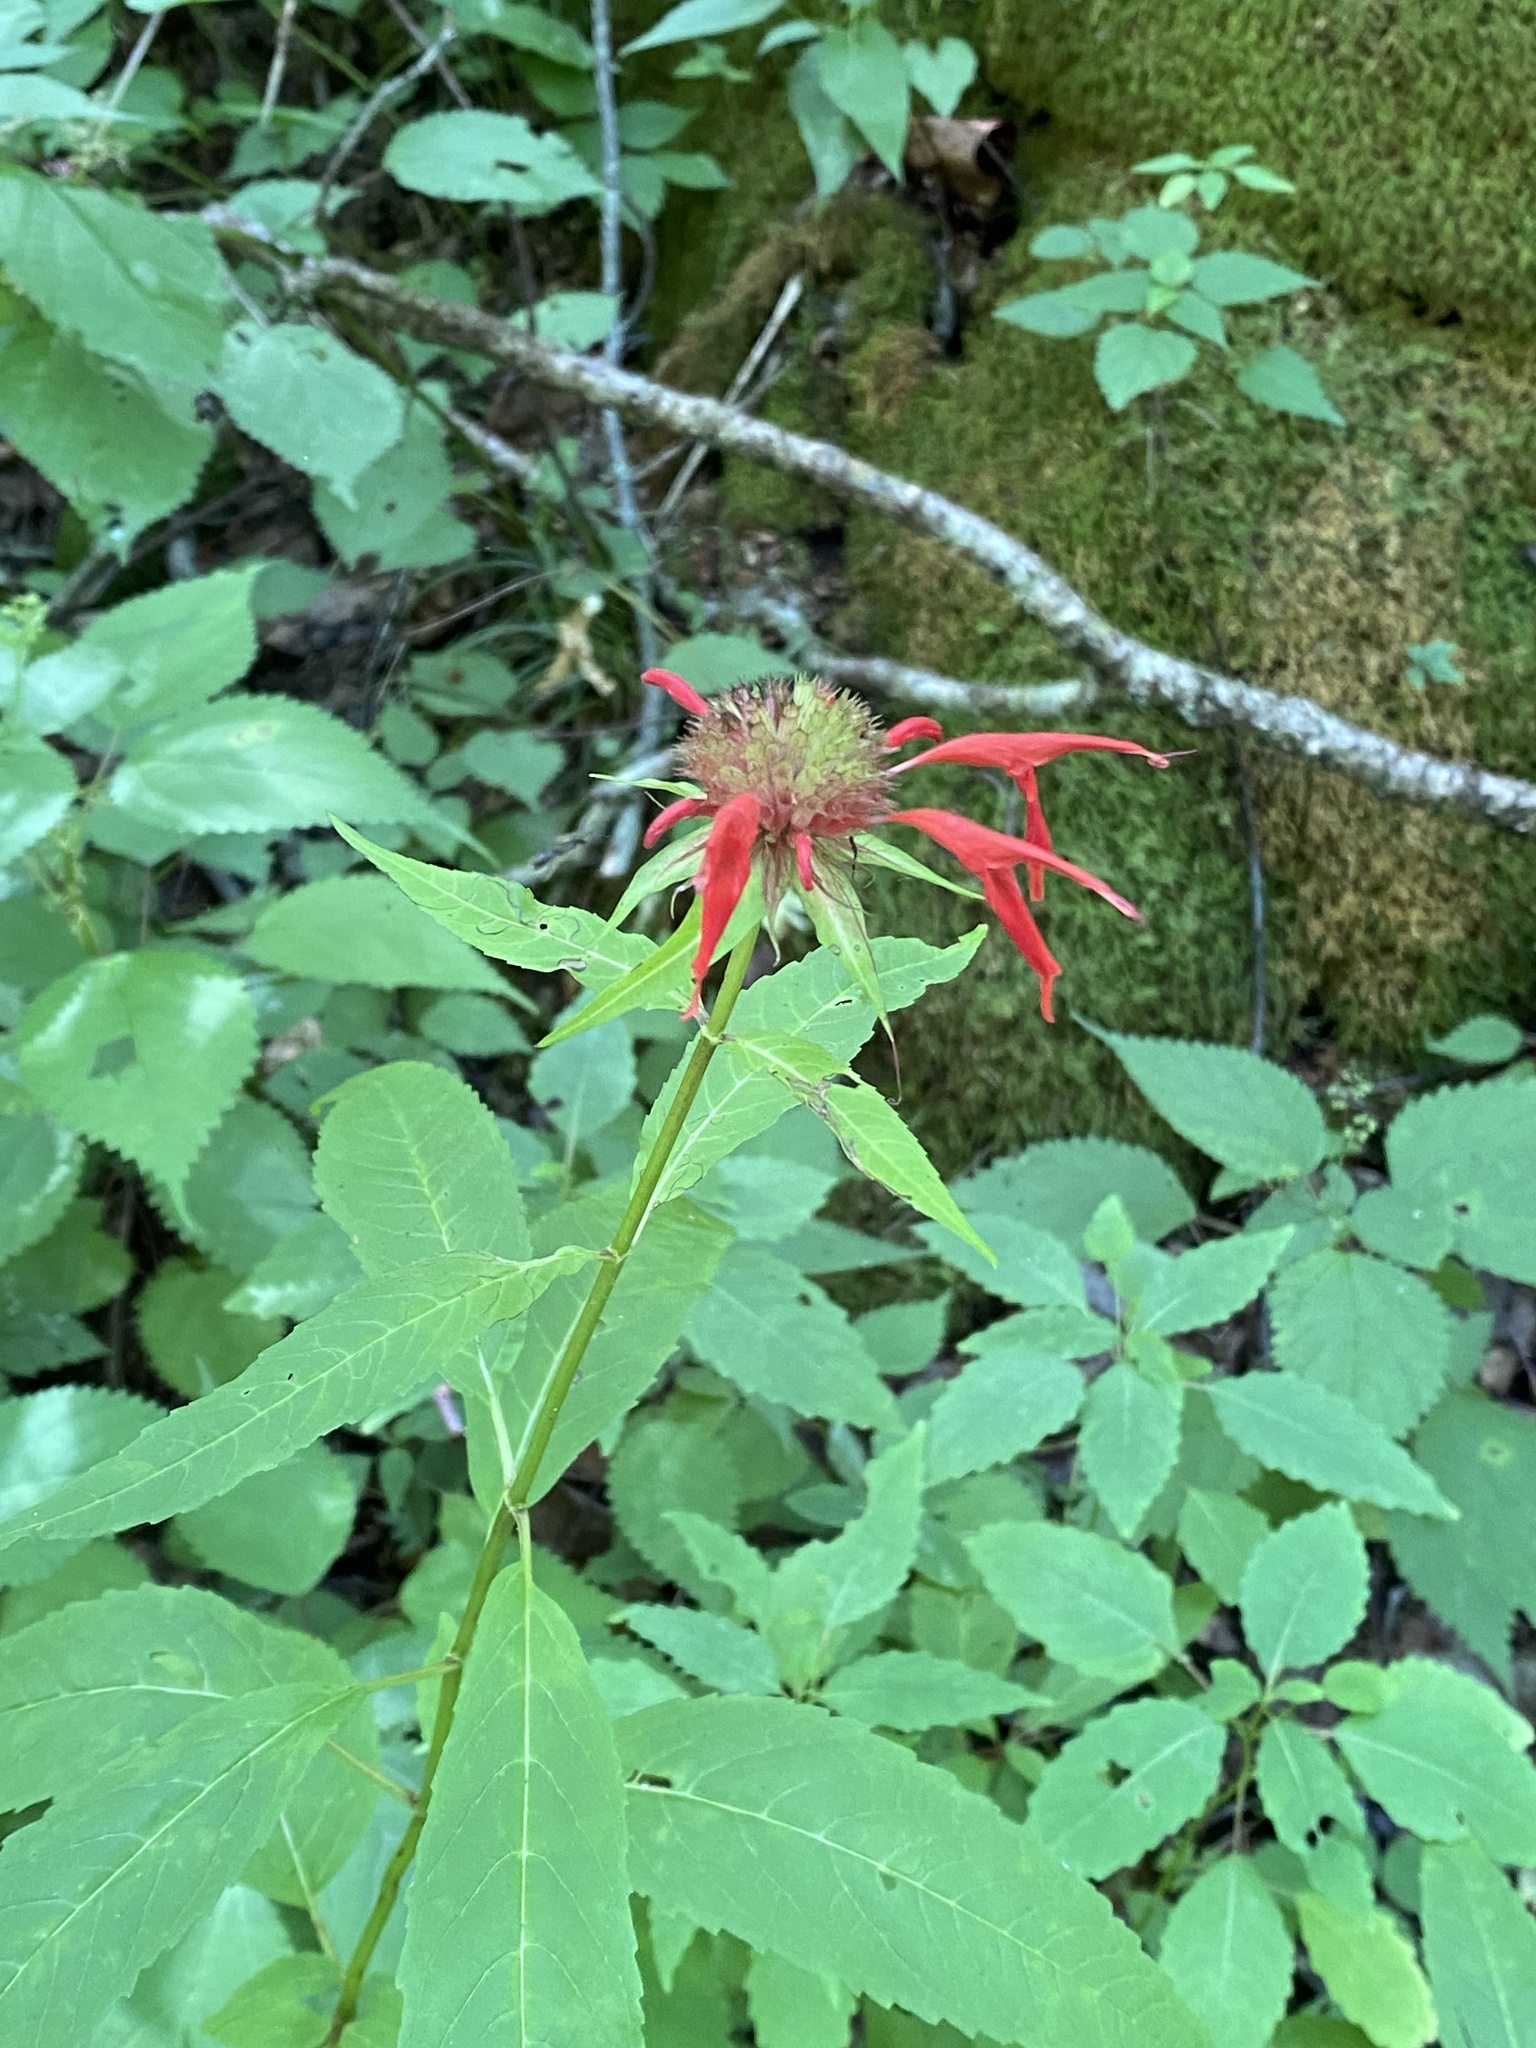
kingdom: Plantae
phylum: Tracheophyta
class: Magnoliopsida
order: Lamiales
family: Lamiaceae
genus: Monarda
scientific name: Monarda didyma
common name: Beebalm
